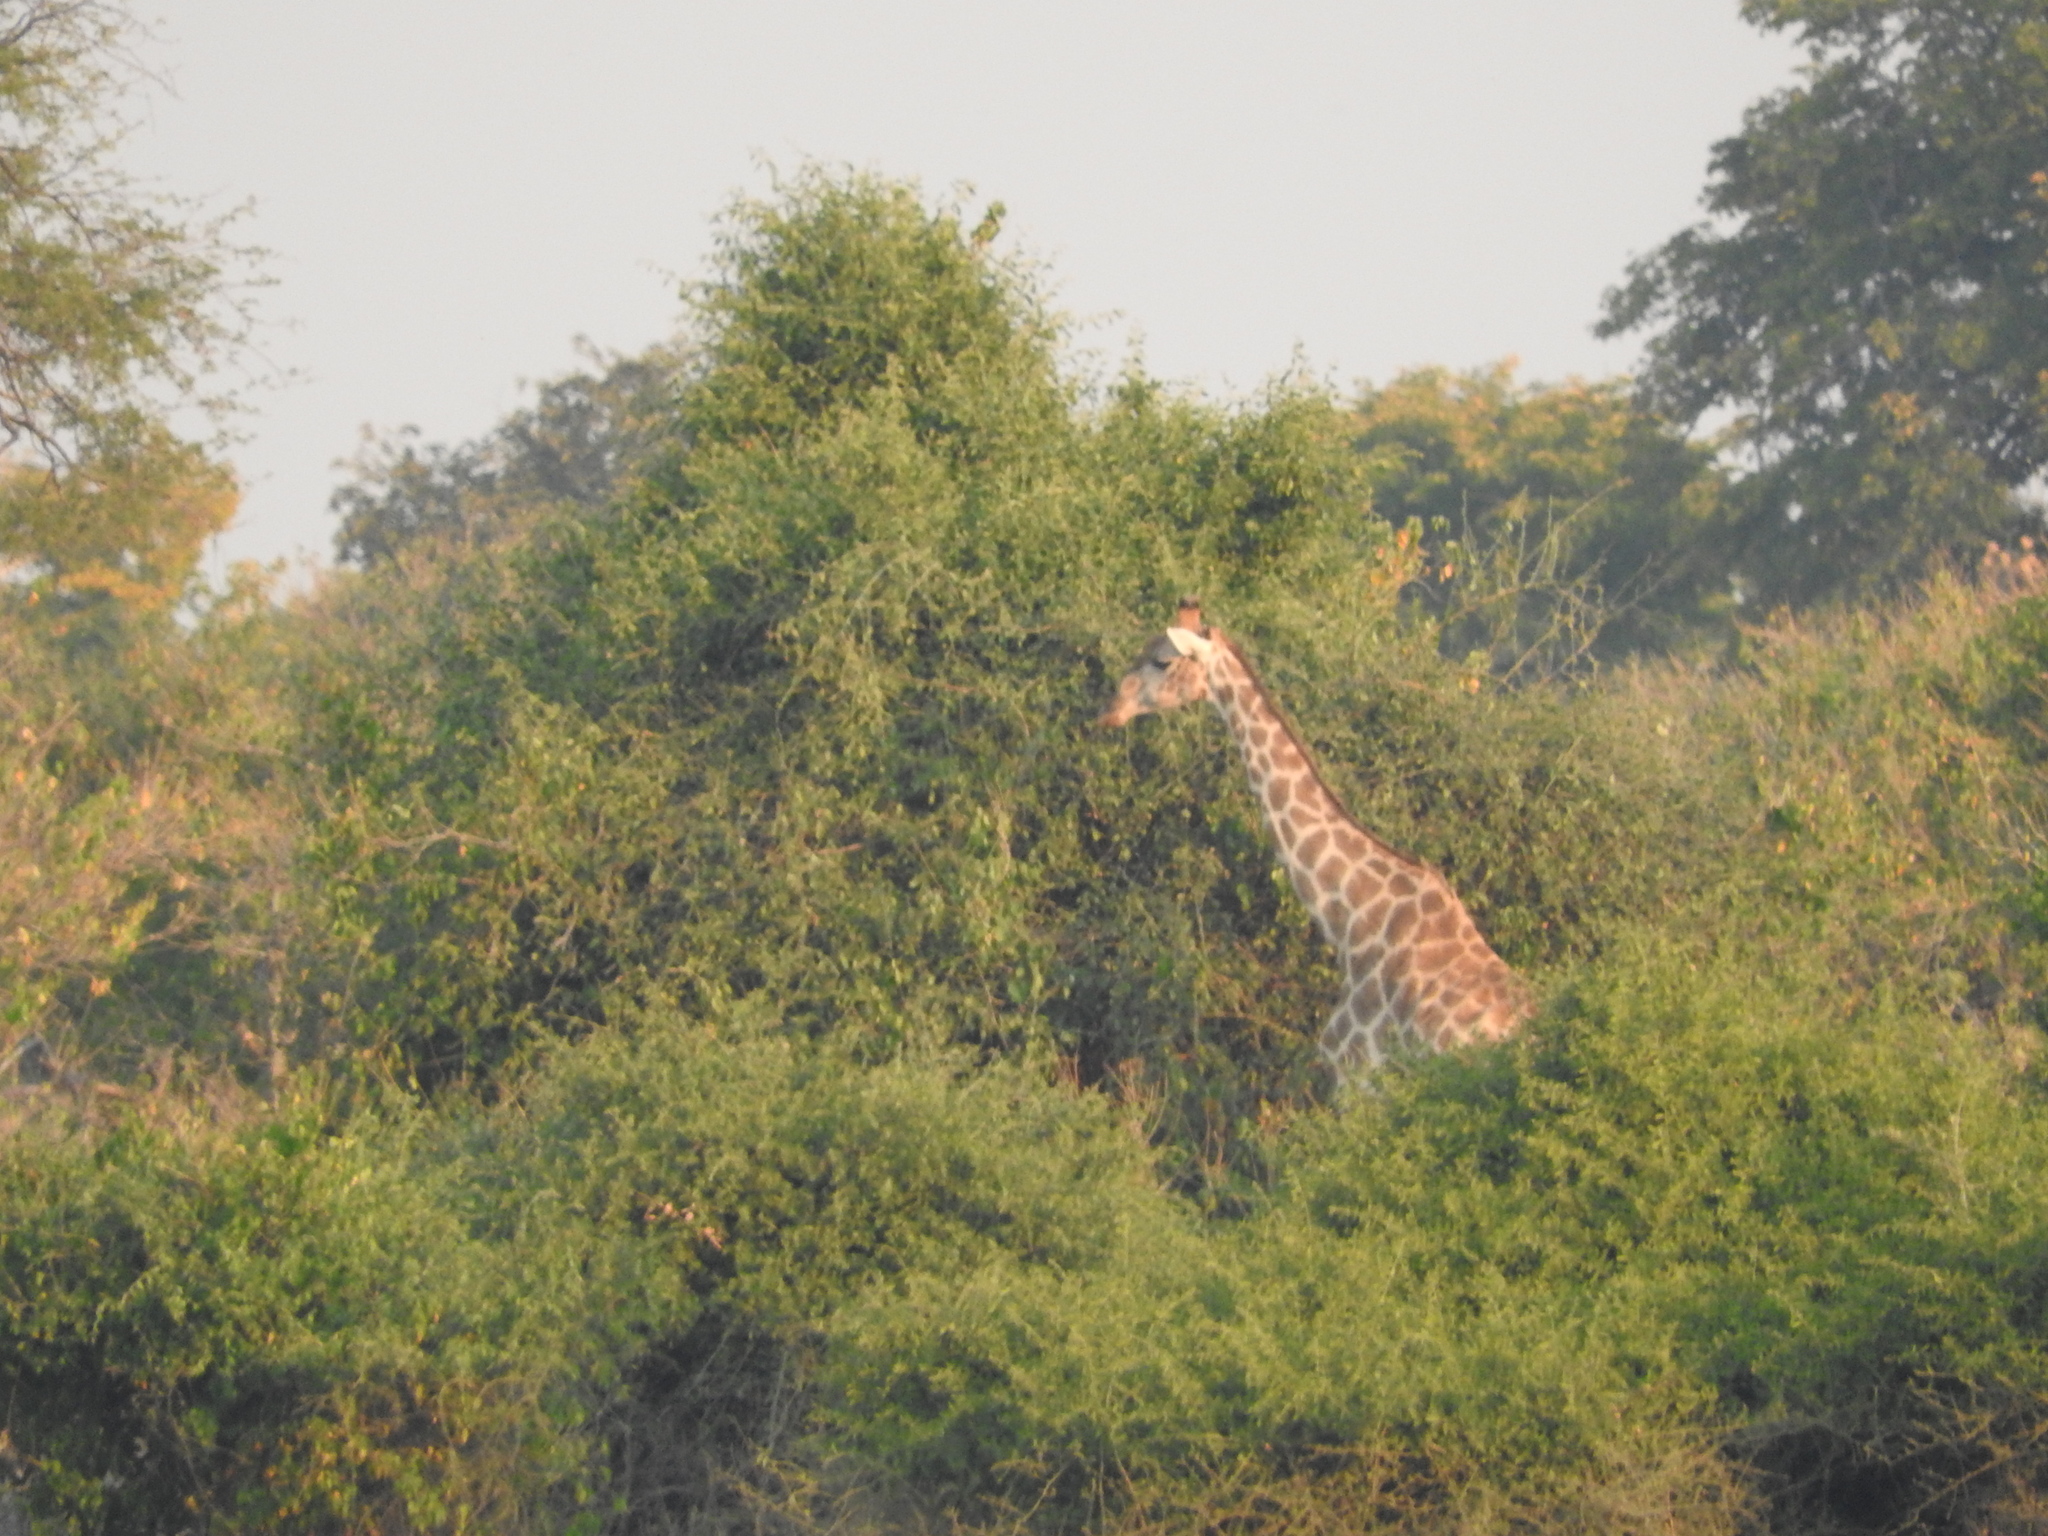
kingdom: Animalia
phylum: Chordata
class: Mammalia
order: Artiodactyla
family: Giraffidae
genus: Giraffa
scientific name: Giraffa giraffa
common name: Southern giraffe
